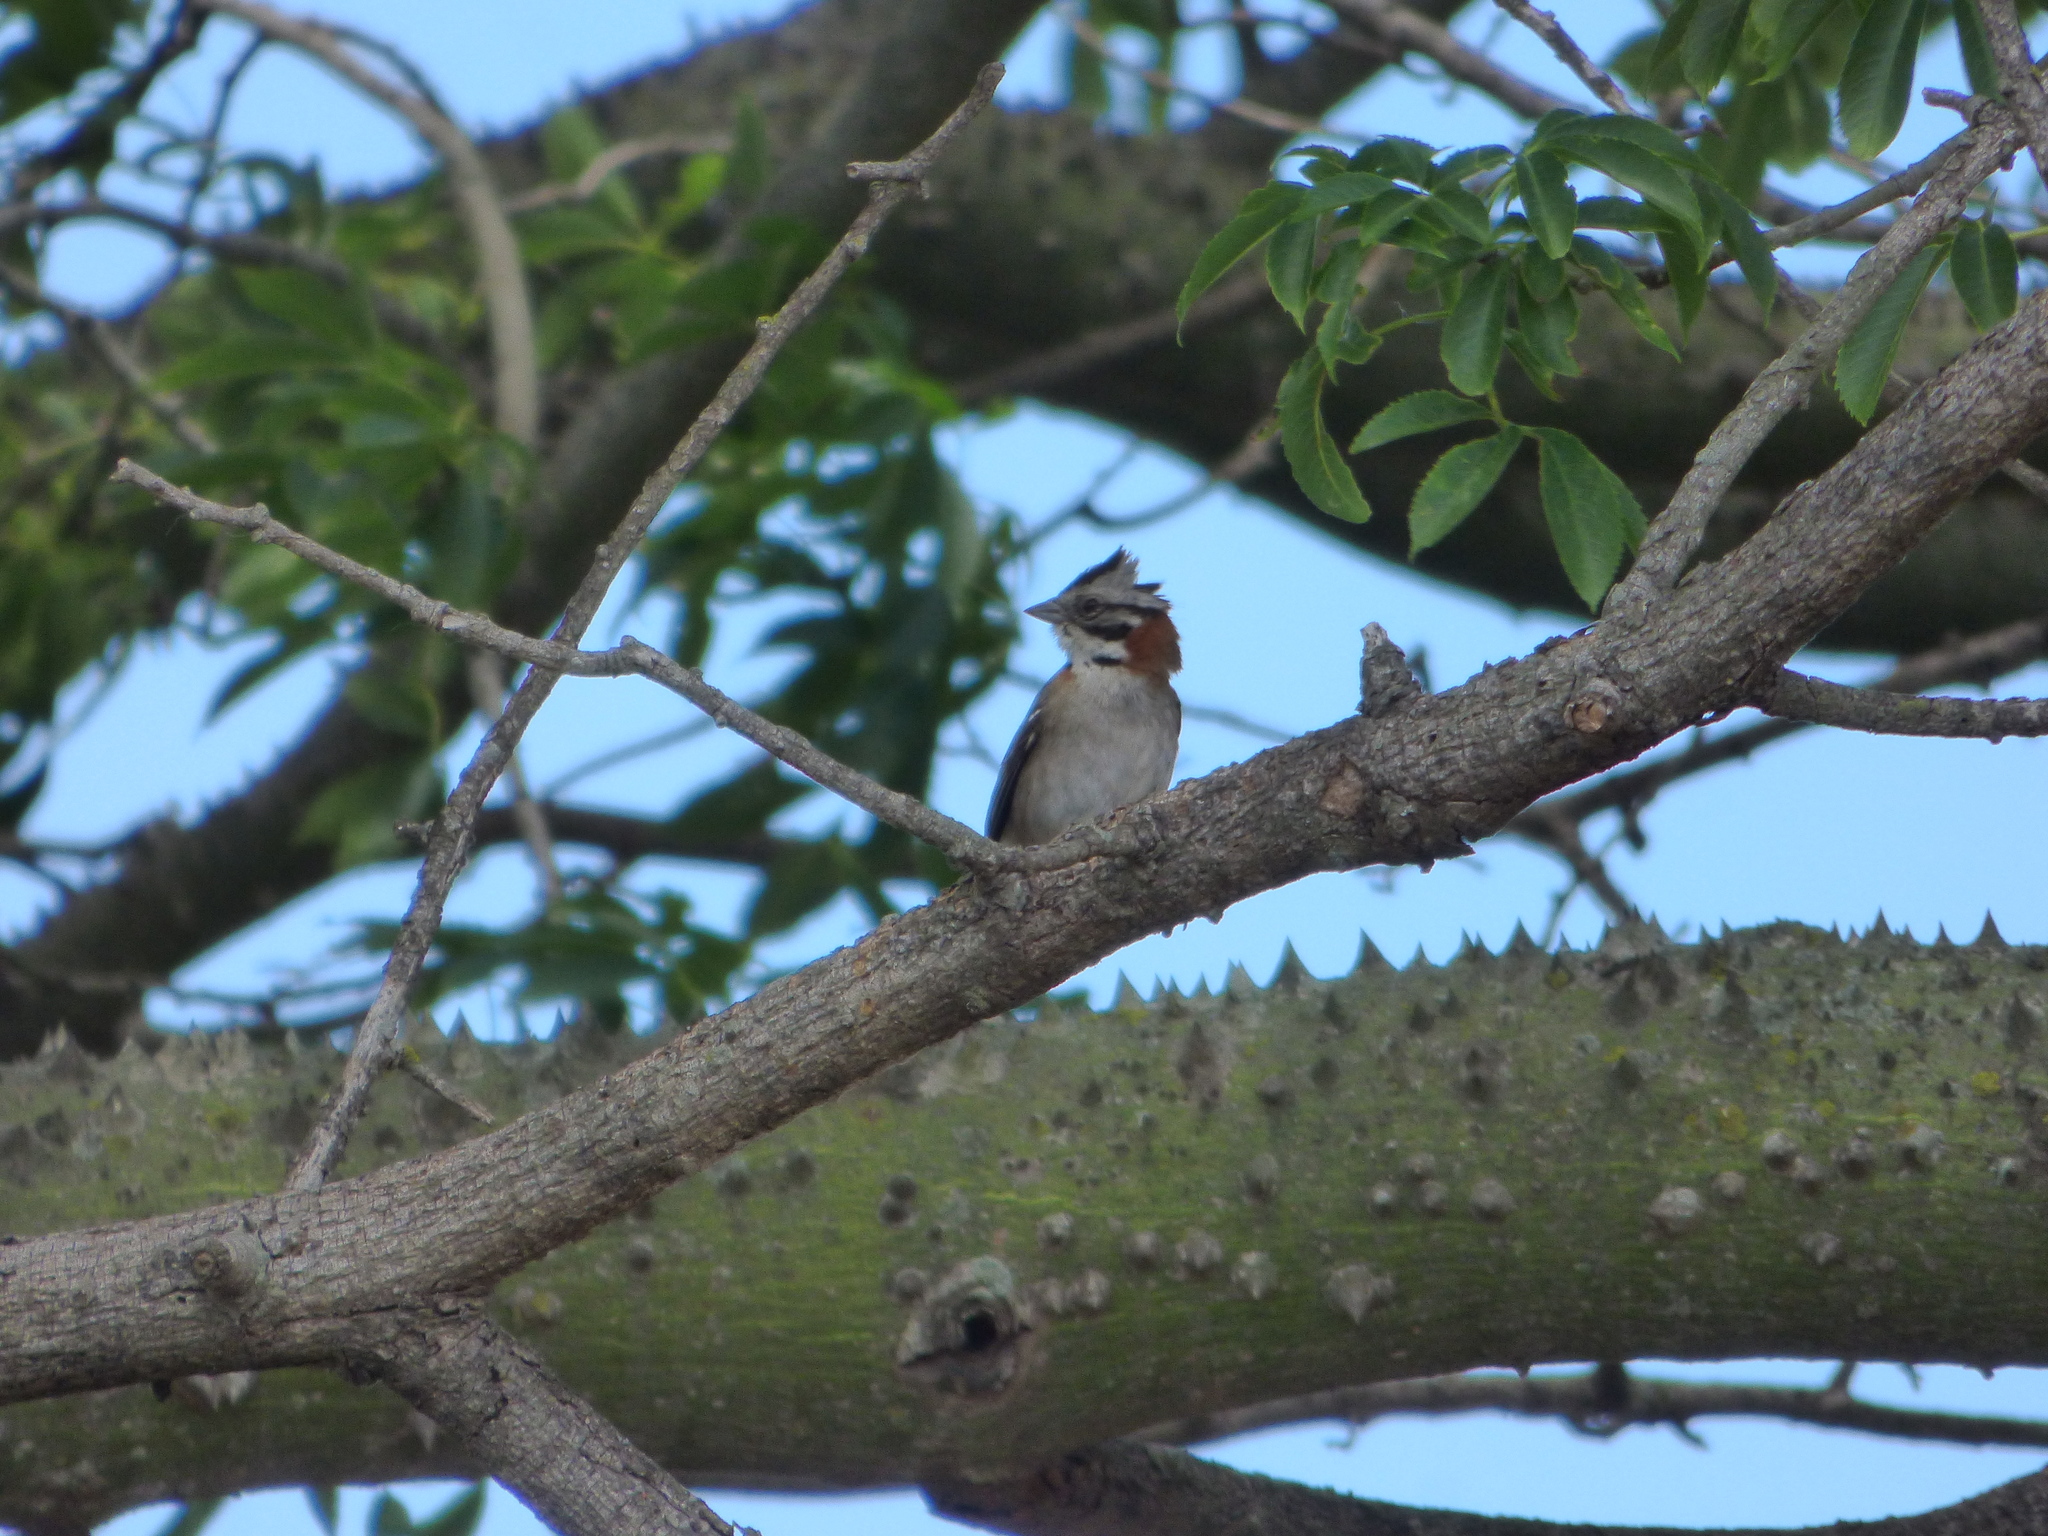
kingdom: Animalia
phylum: Chordata
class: Aves
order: Passeriformes
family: Passerellidae
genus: Zonotrichia
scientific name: Zonotrichia capensis
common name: Rufous-collared sparrow
